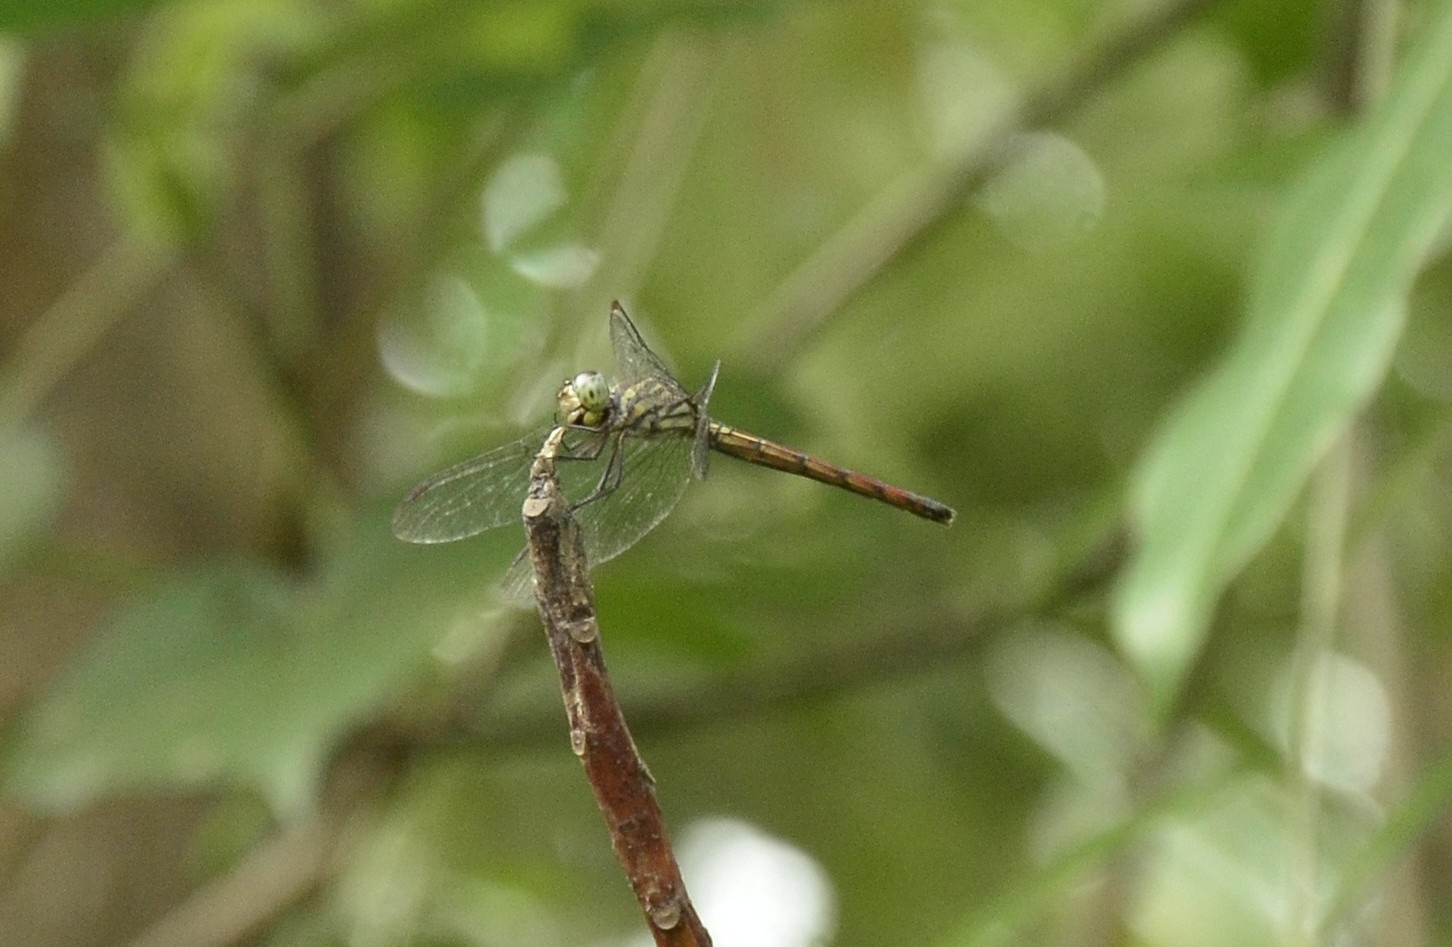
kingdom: Animalia
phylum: Arthropoda
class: Insecta
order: Odonata
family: Libellulidae
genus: Lathrecista
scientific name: Lathrecista asiatica
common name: Scarlet grenadier
